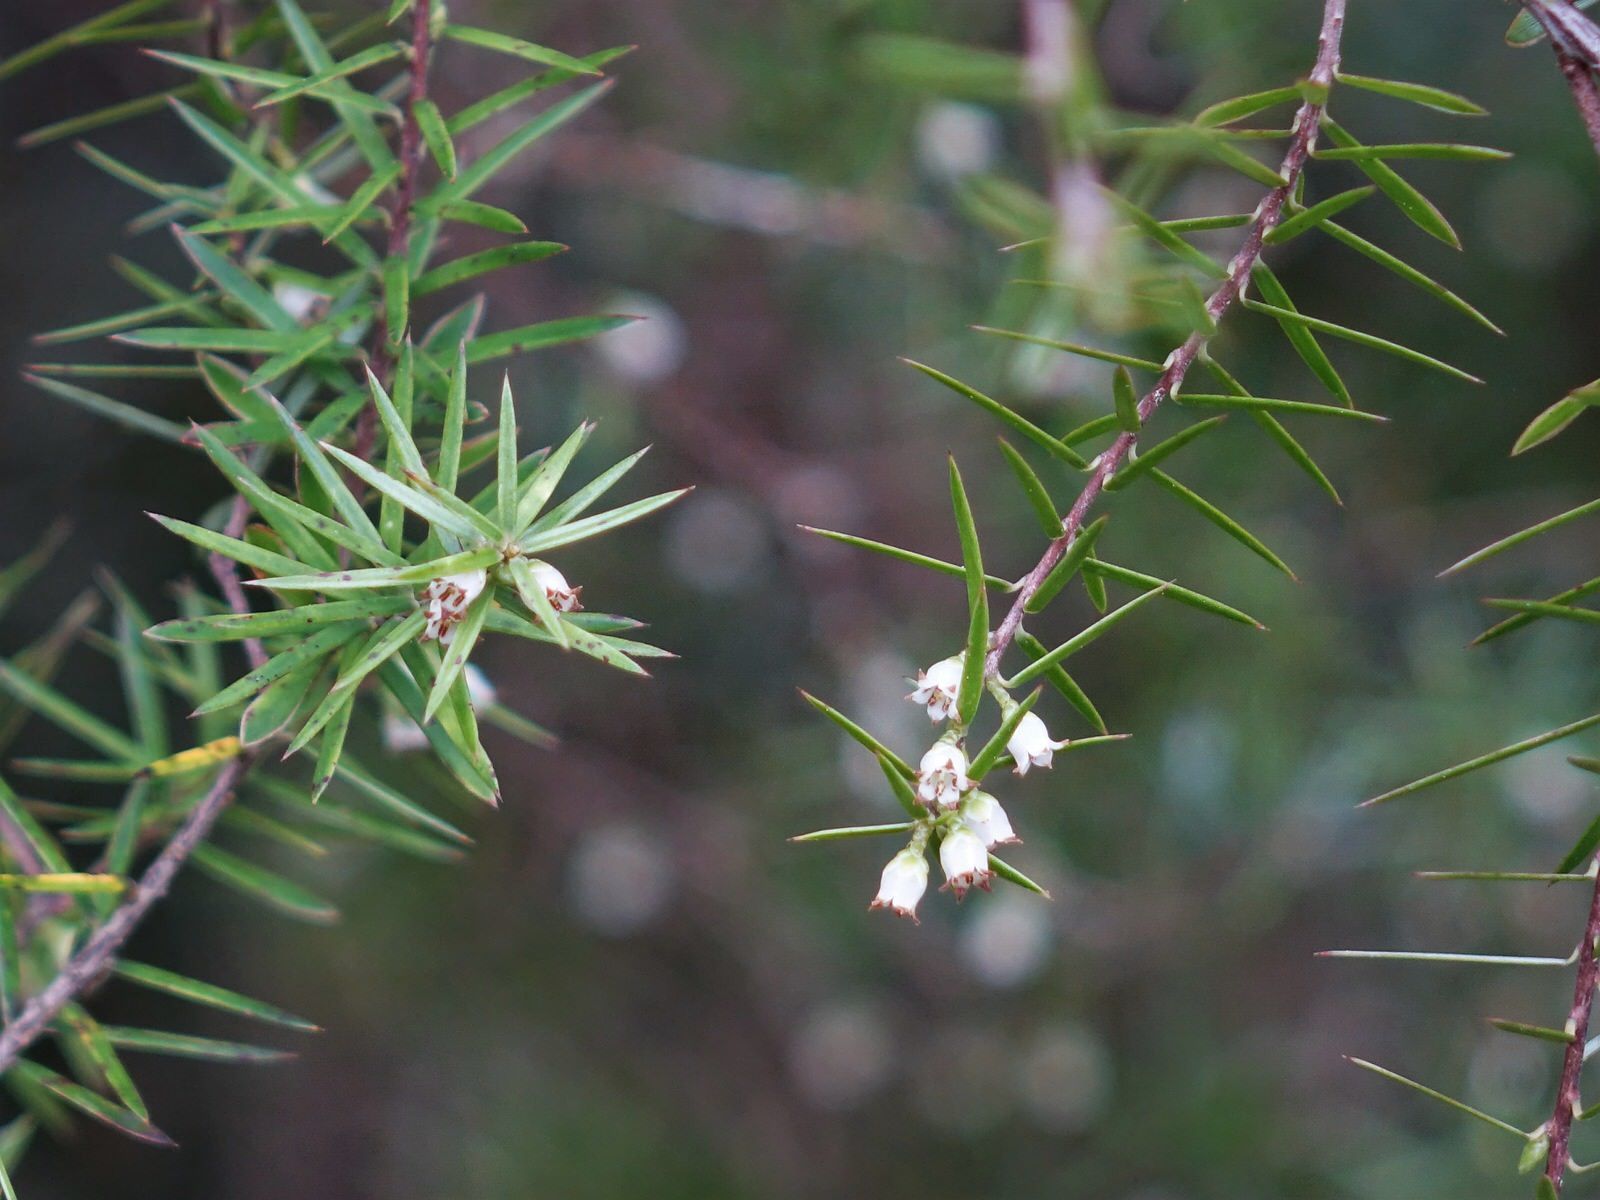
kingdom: Plantae
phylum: Tracheophyta
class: Magnoliopsida
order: Ericales
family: Ericaceae
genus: Leptecophylla
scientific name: Leptecophylla juniperina
